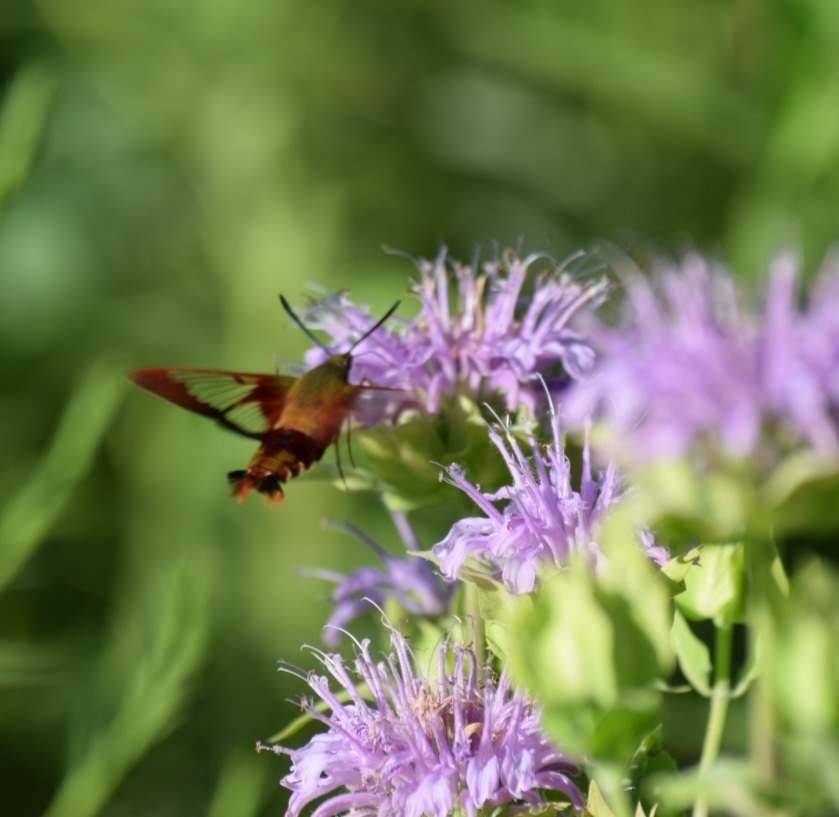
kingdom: Animalia
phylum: Arthropoda
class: Insecta
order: Lepidoptera
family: Sphingidae
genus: Hemaris
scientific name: Hemaris thysbe
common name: Common clear-wing
